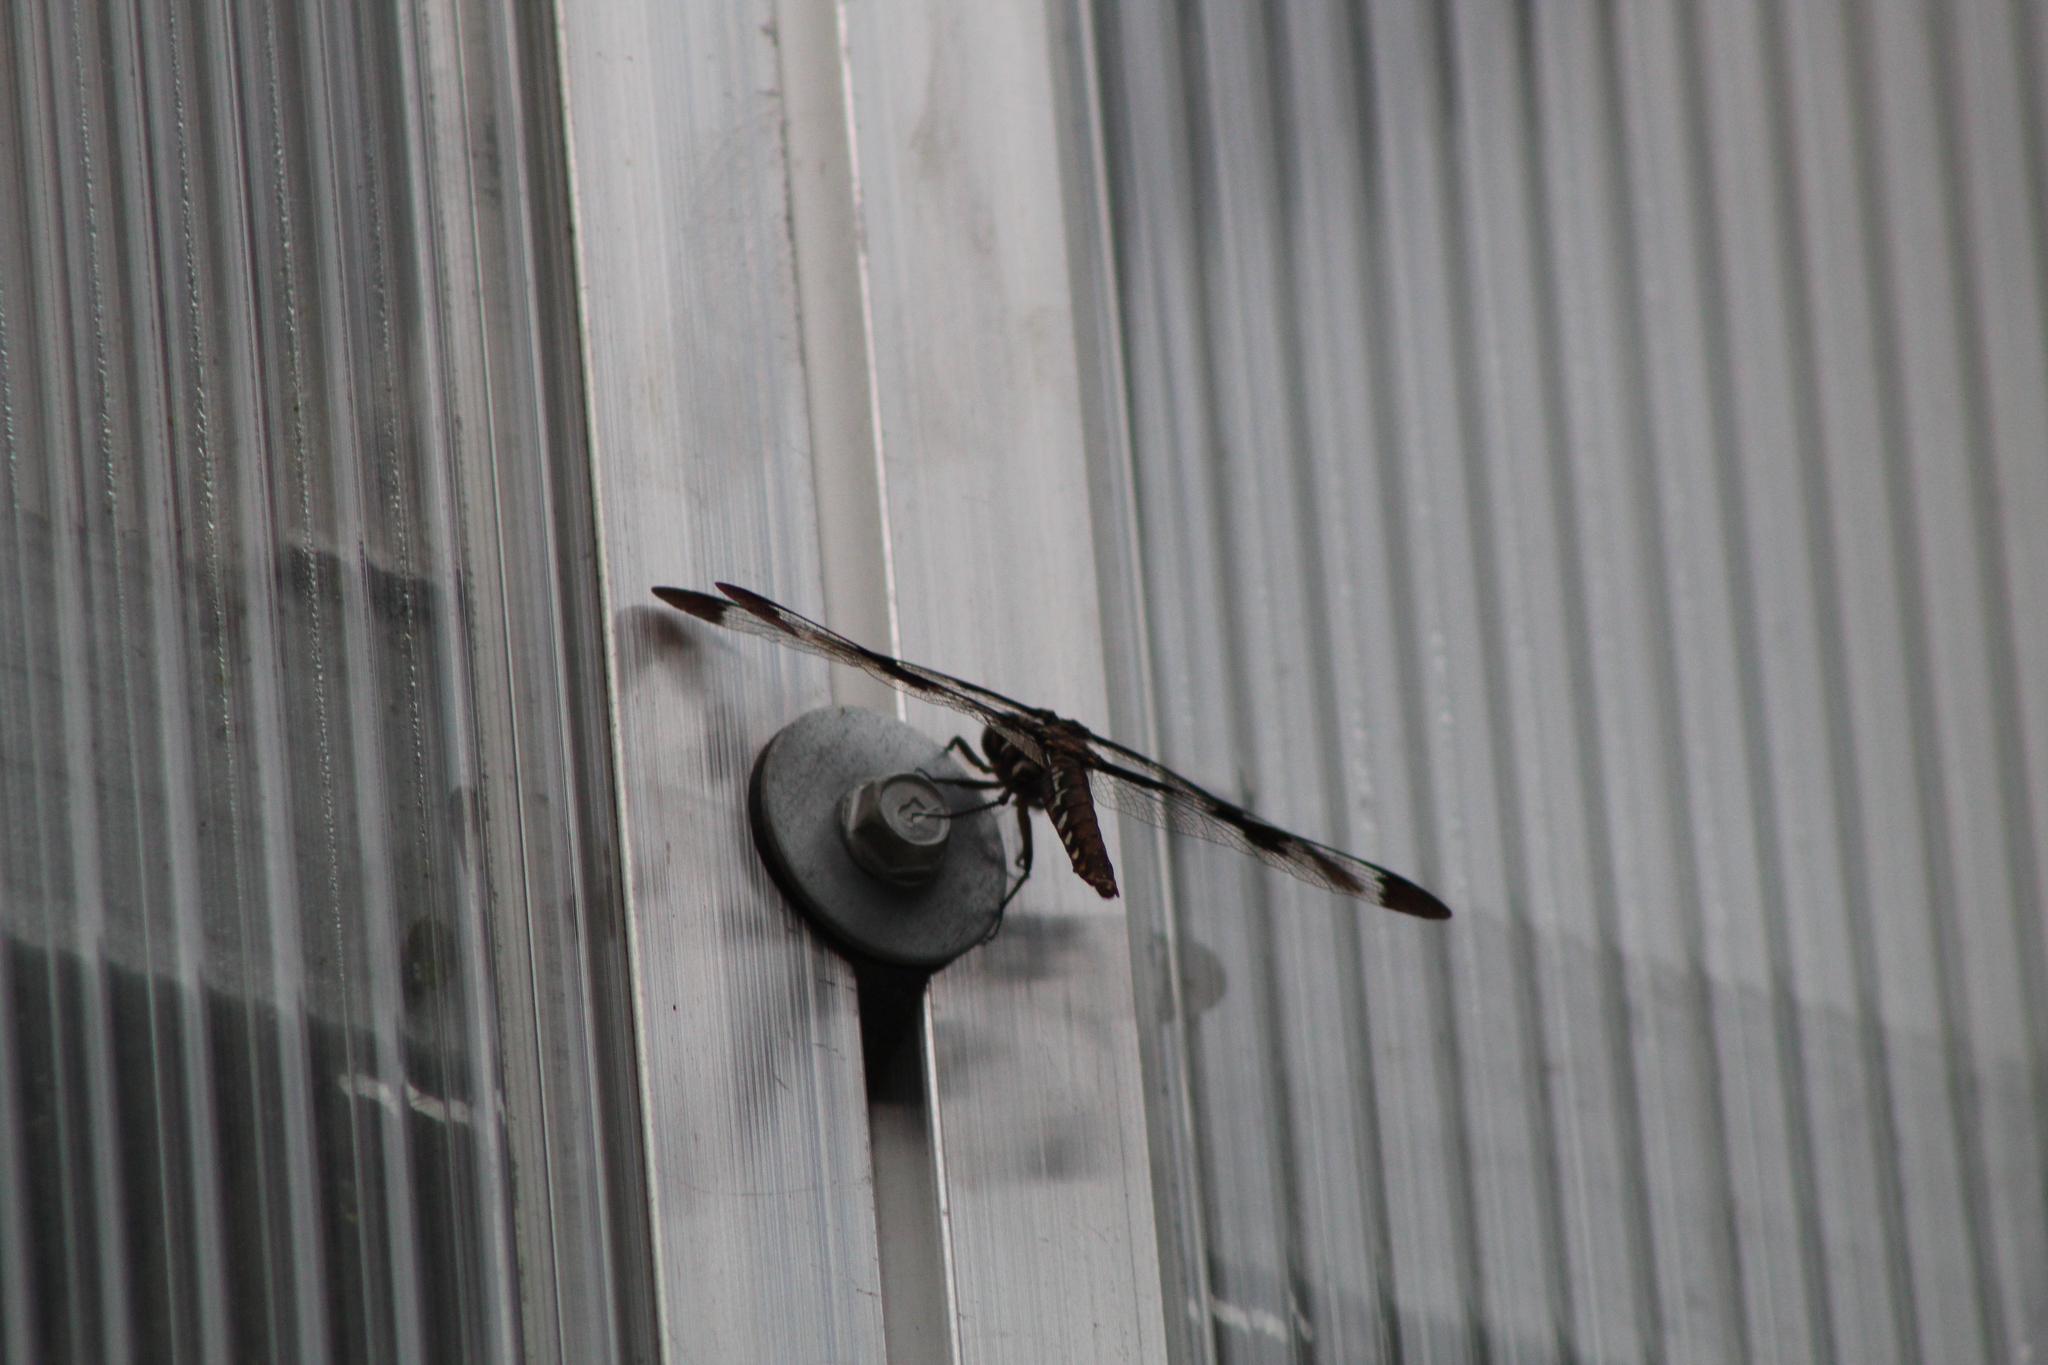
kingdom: Animalia
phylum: Arthropoda
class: Insecta
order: Odonata
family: Libellulidae
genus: Plathemis
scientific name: Plathemis lydia
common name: Common whitetail
